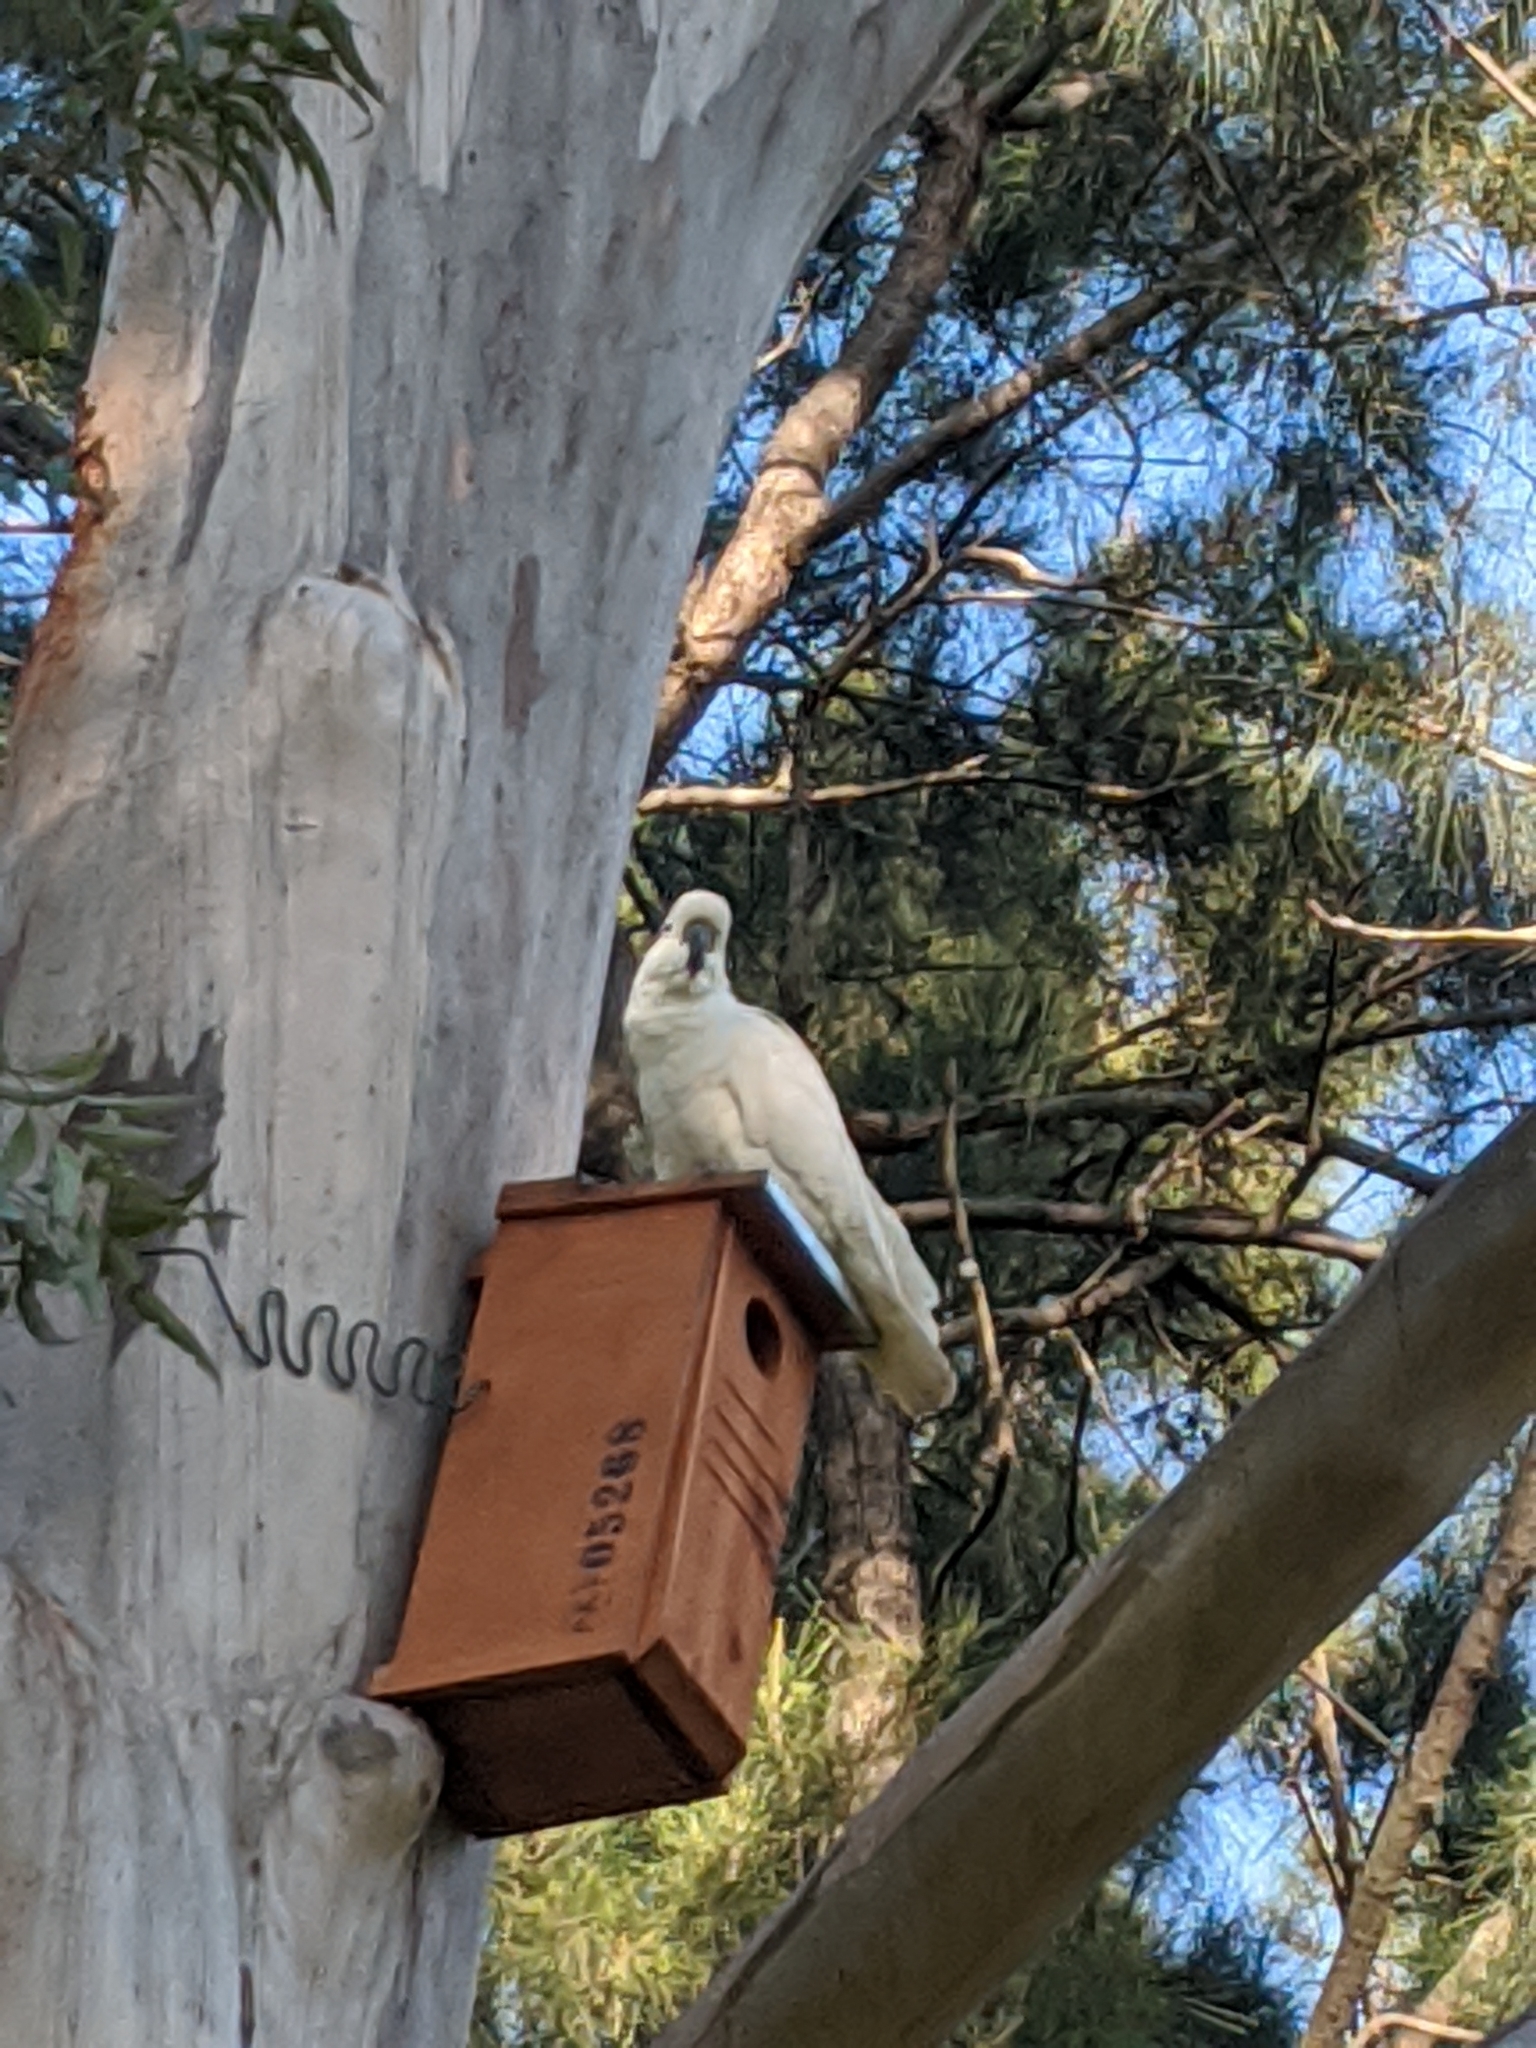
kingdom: Animalia
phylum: Chordata
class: Aves
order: Psittaciformes
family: Psittacidae
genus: Cacatua
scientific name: Cacatua galerita
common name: Sulphur-crested cockatoo
